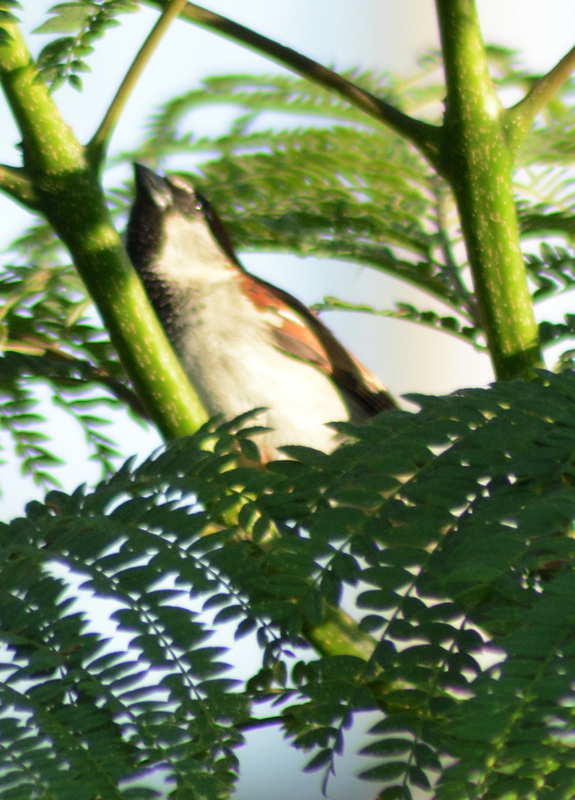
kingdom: Animalia
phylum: Chordata
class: Aves
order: Passeriformes
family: Passeridae
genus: Passer
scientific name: Passer domesticus
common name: House sparrow
